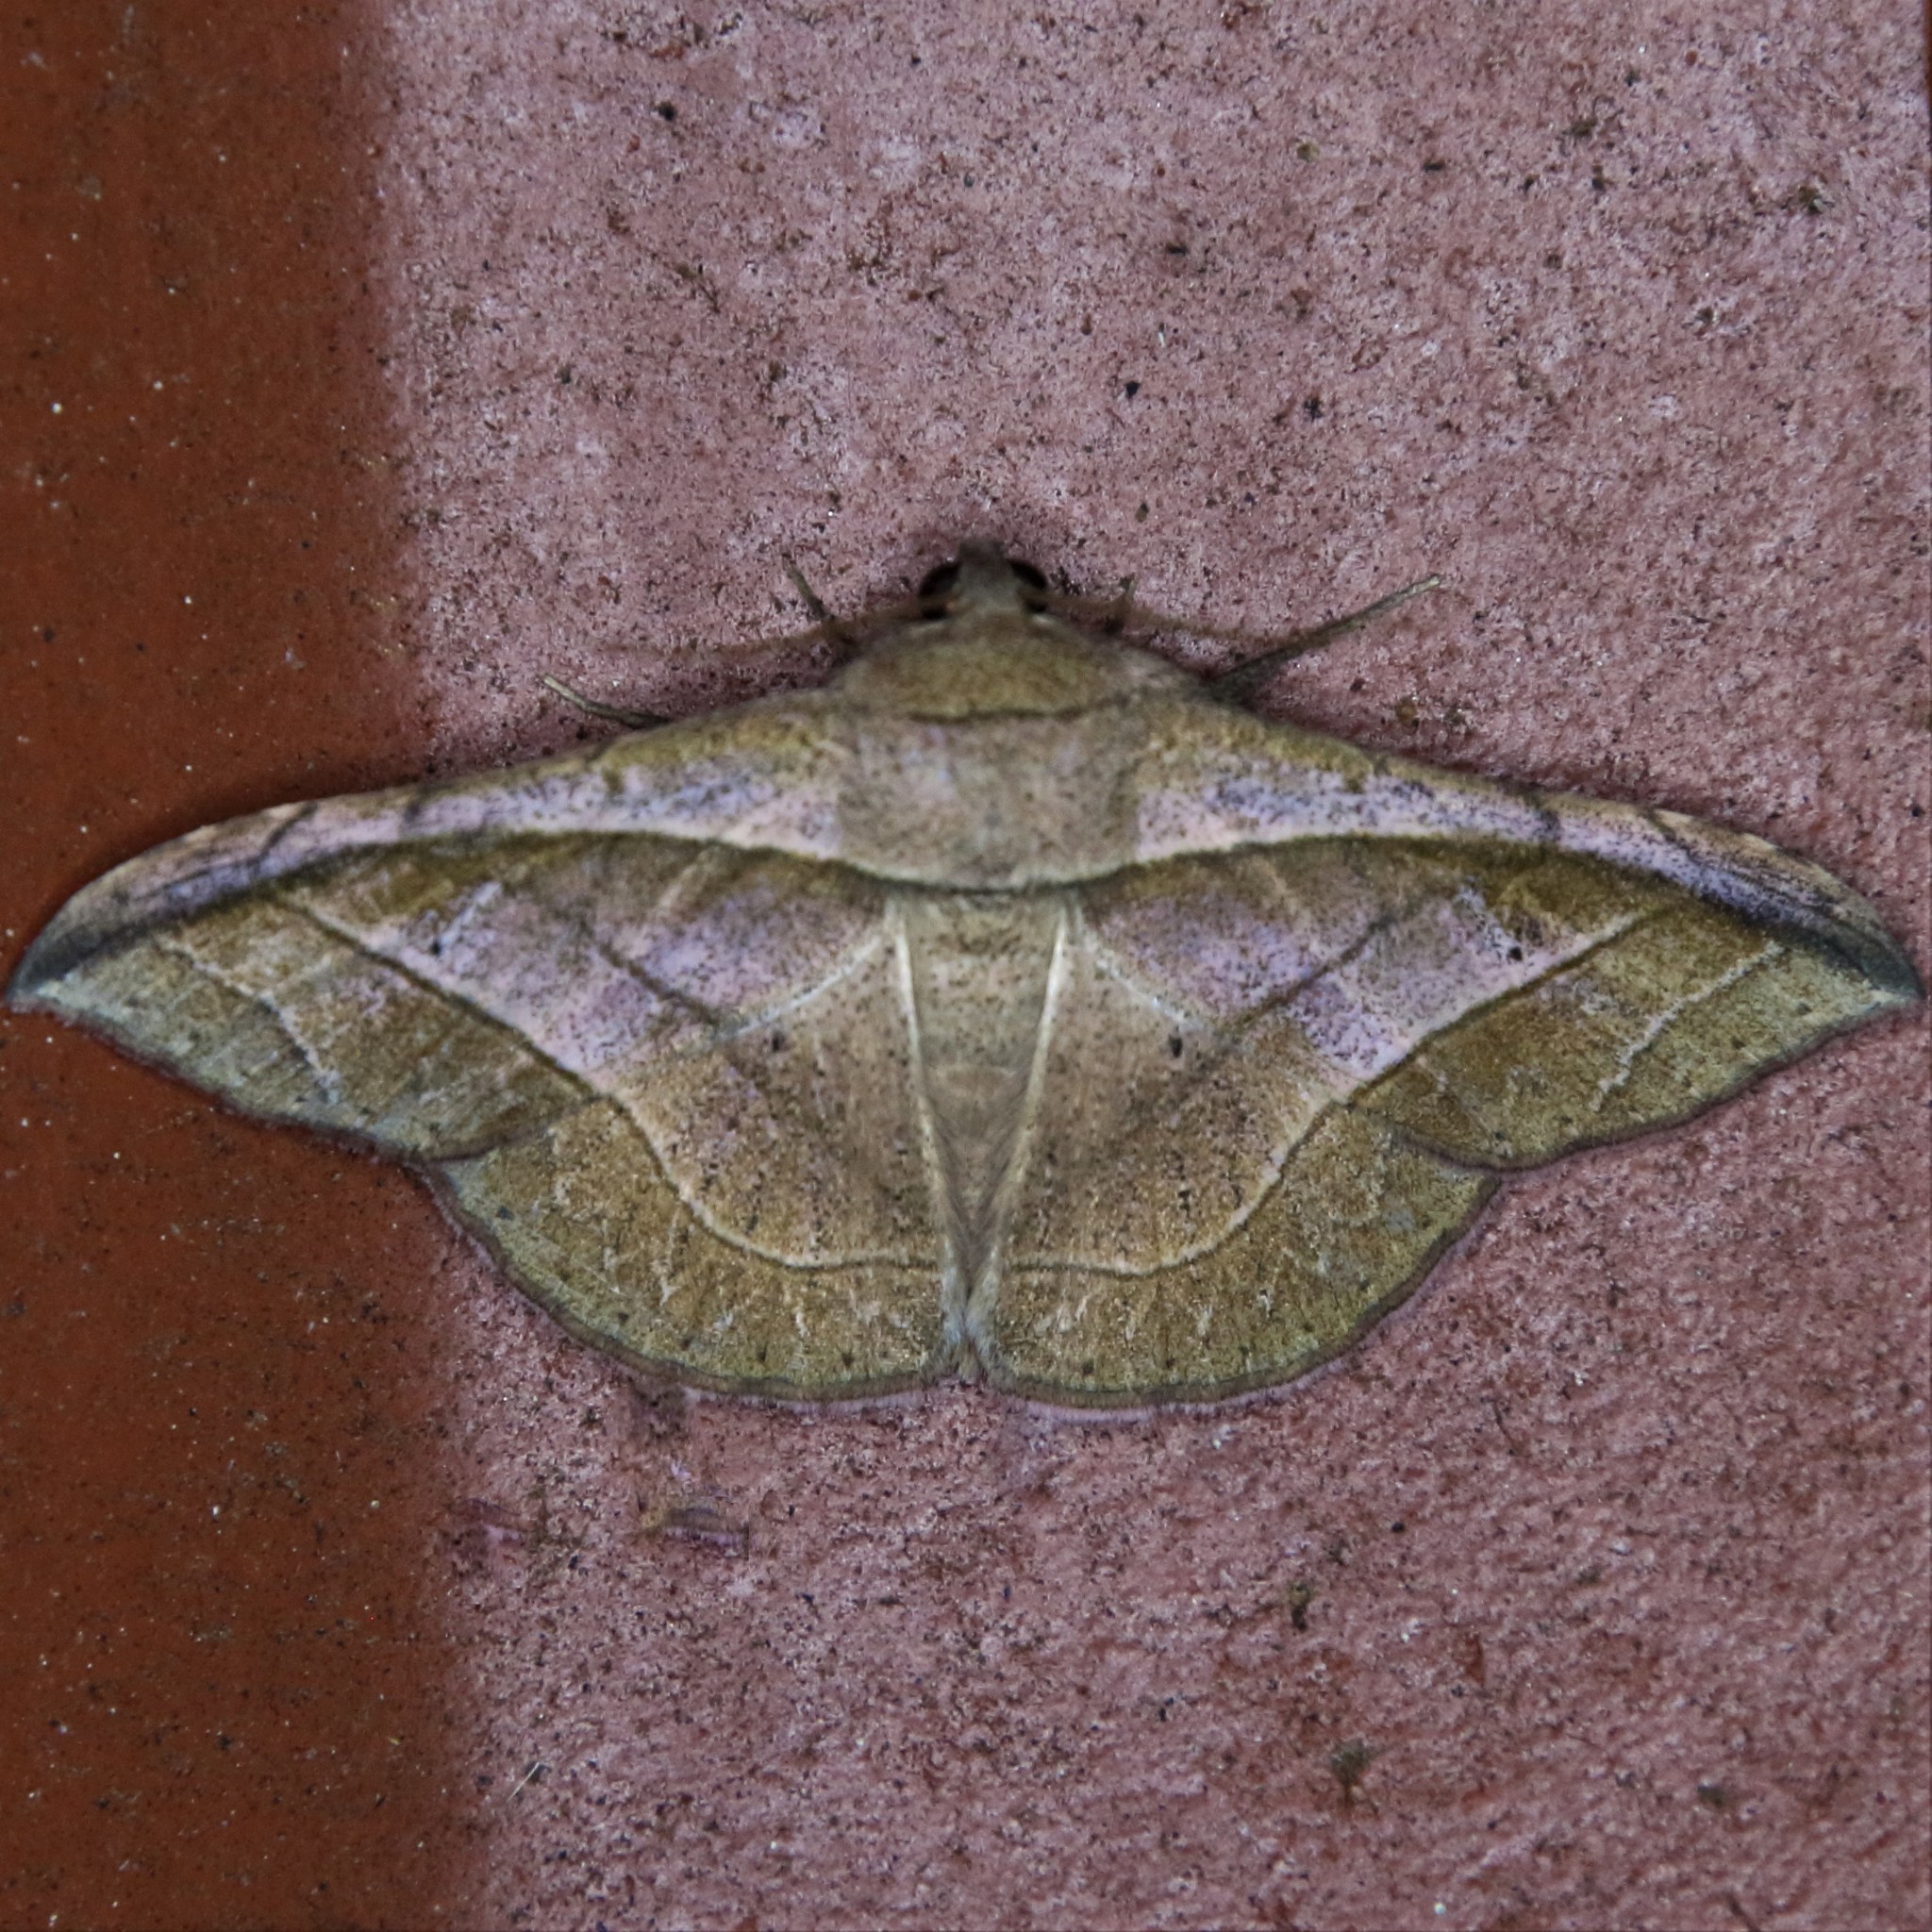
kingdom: Animalia
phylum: Arthropoda
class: Insecta
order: Lepidoptera
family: Erebidae
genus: Tiruvaca
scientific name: Tiruvaca subcostalis
